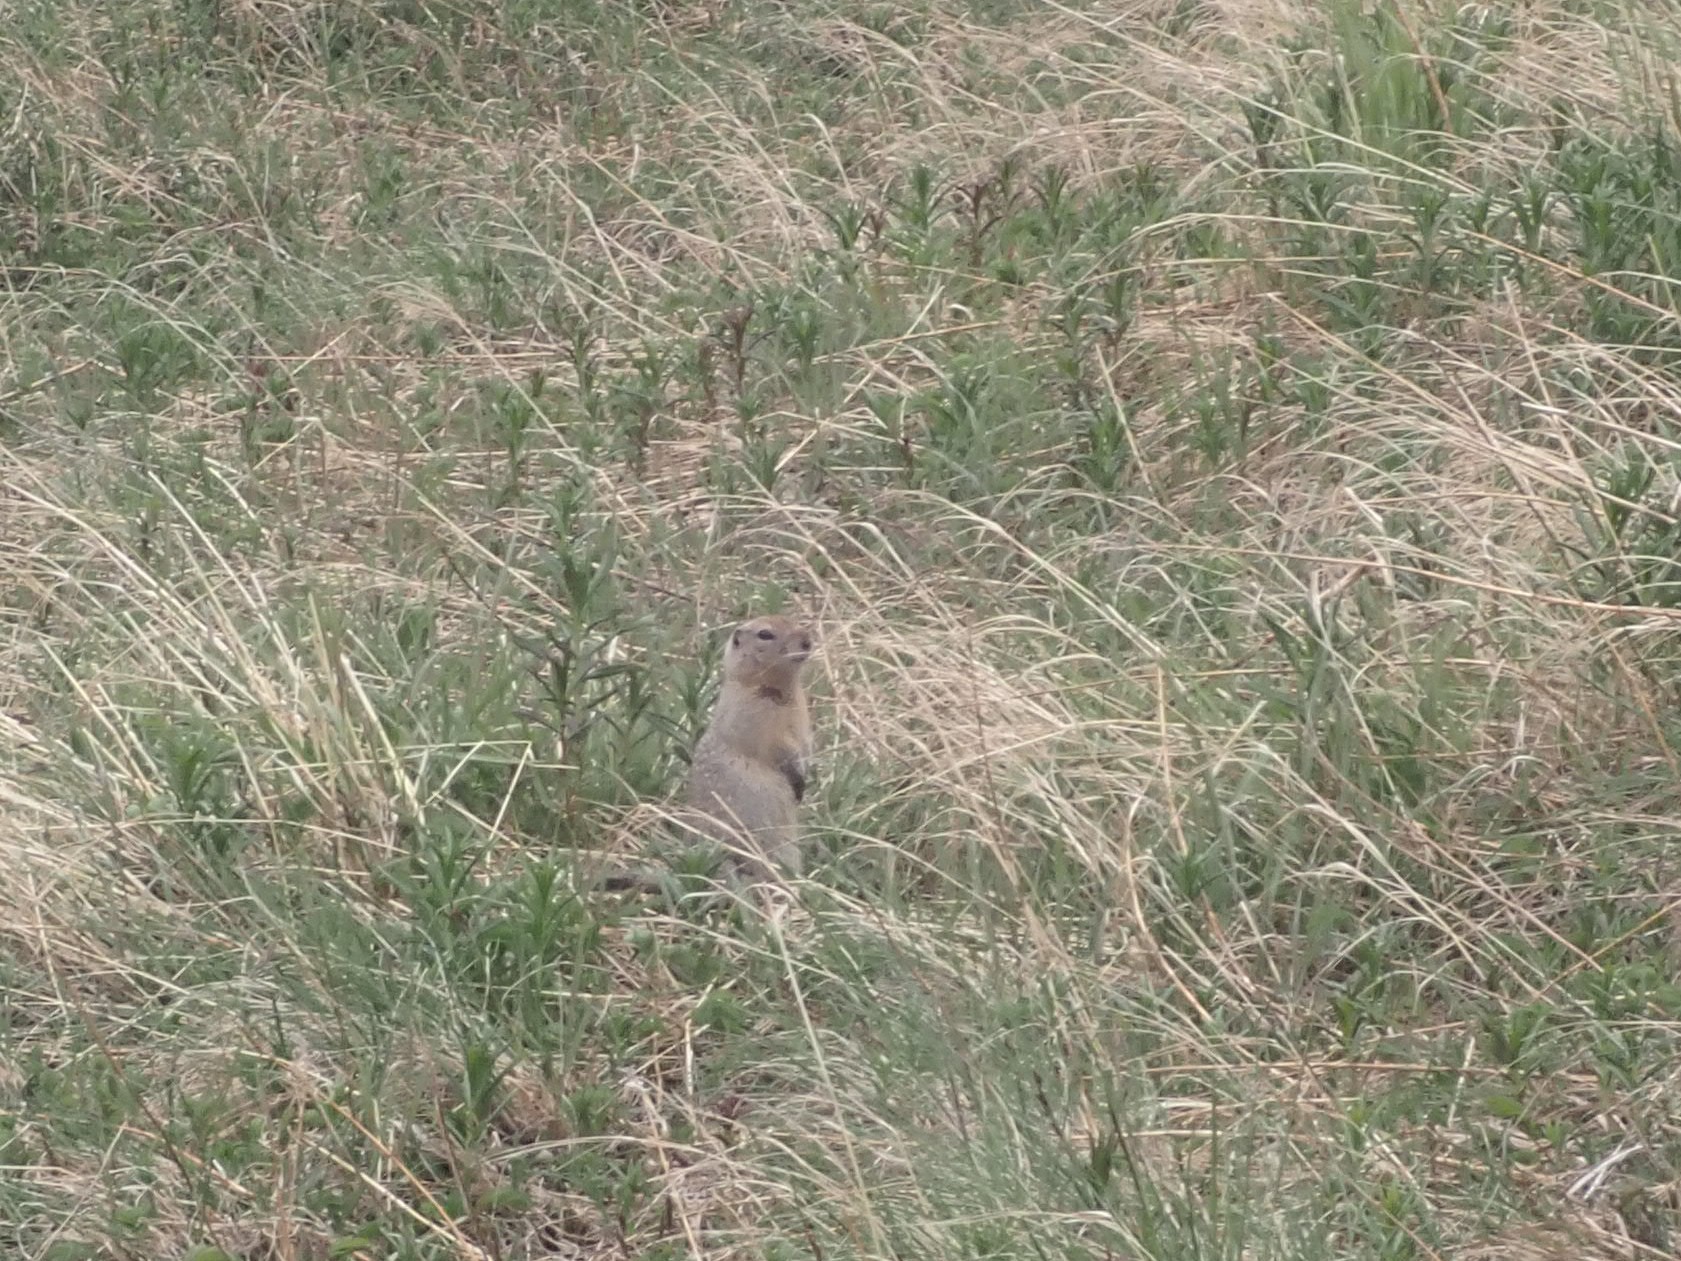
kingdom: Animalia
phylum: Chordata
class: Mammalia
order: Rodentia
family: Sciuridae
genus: Urocitellus
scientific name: Urocitellus parryii
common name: Arctic ground squirrel
